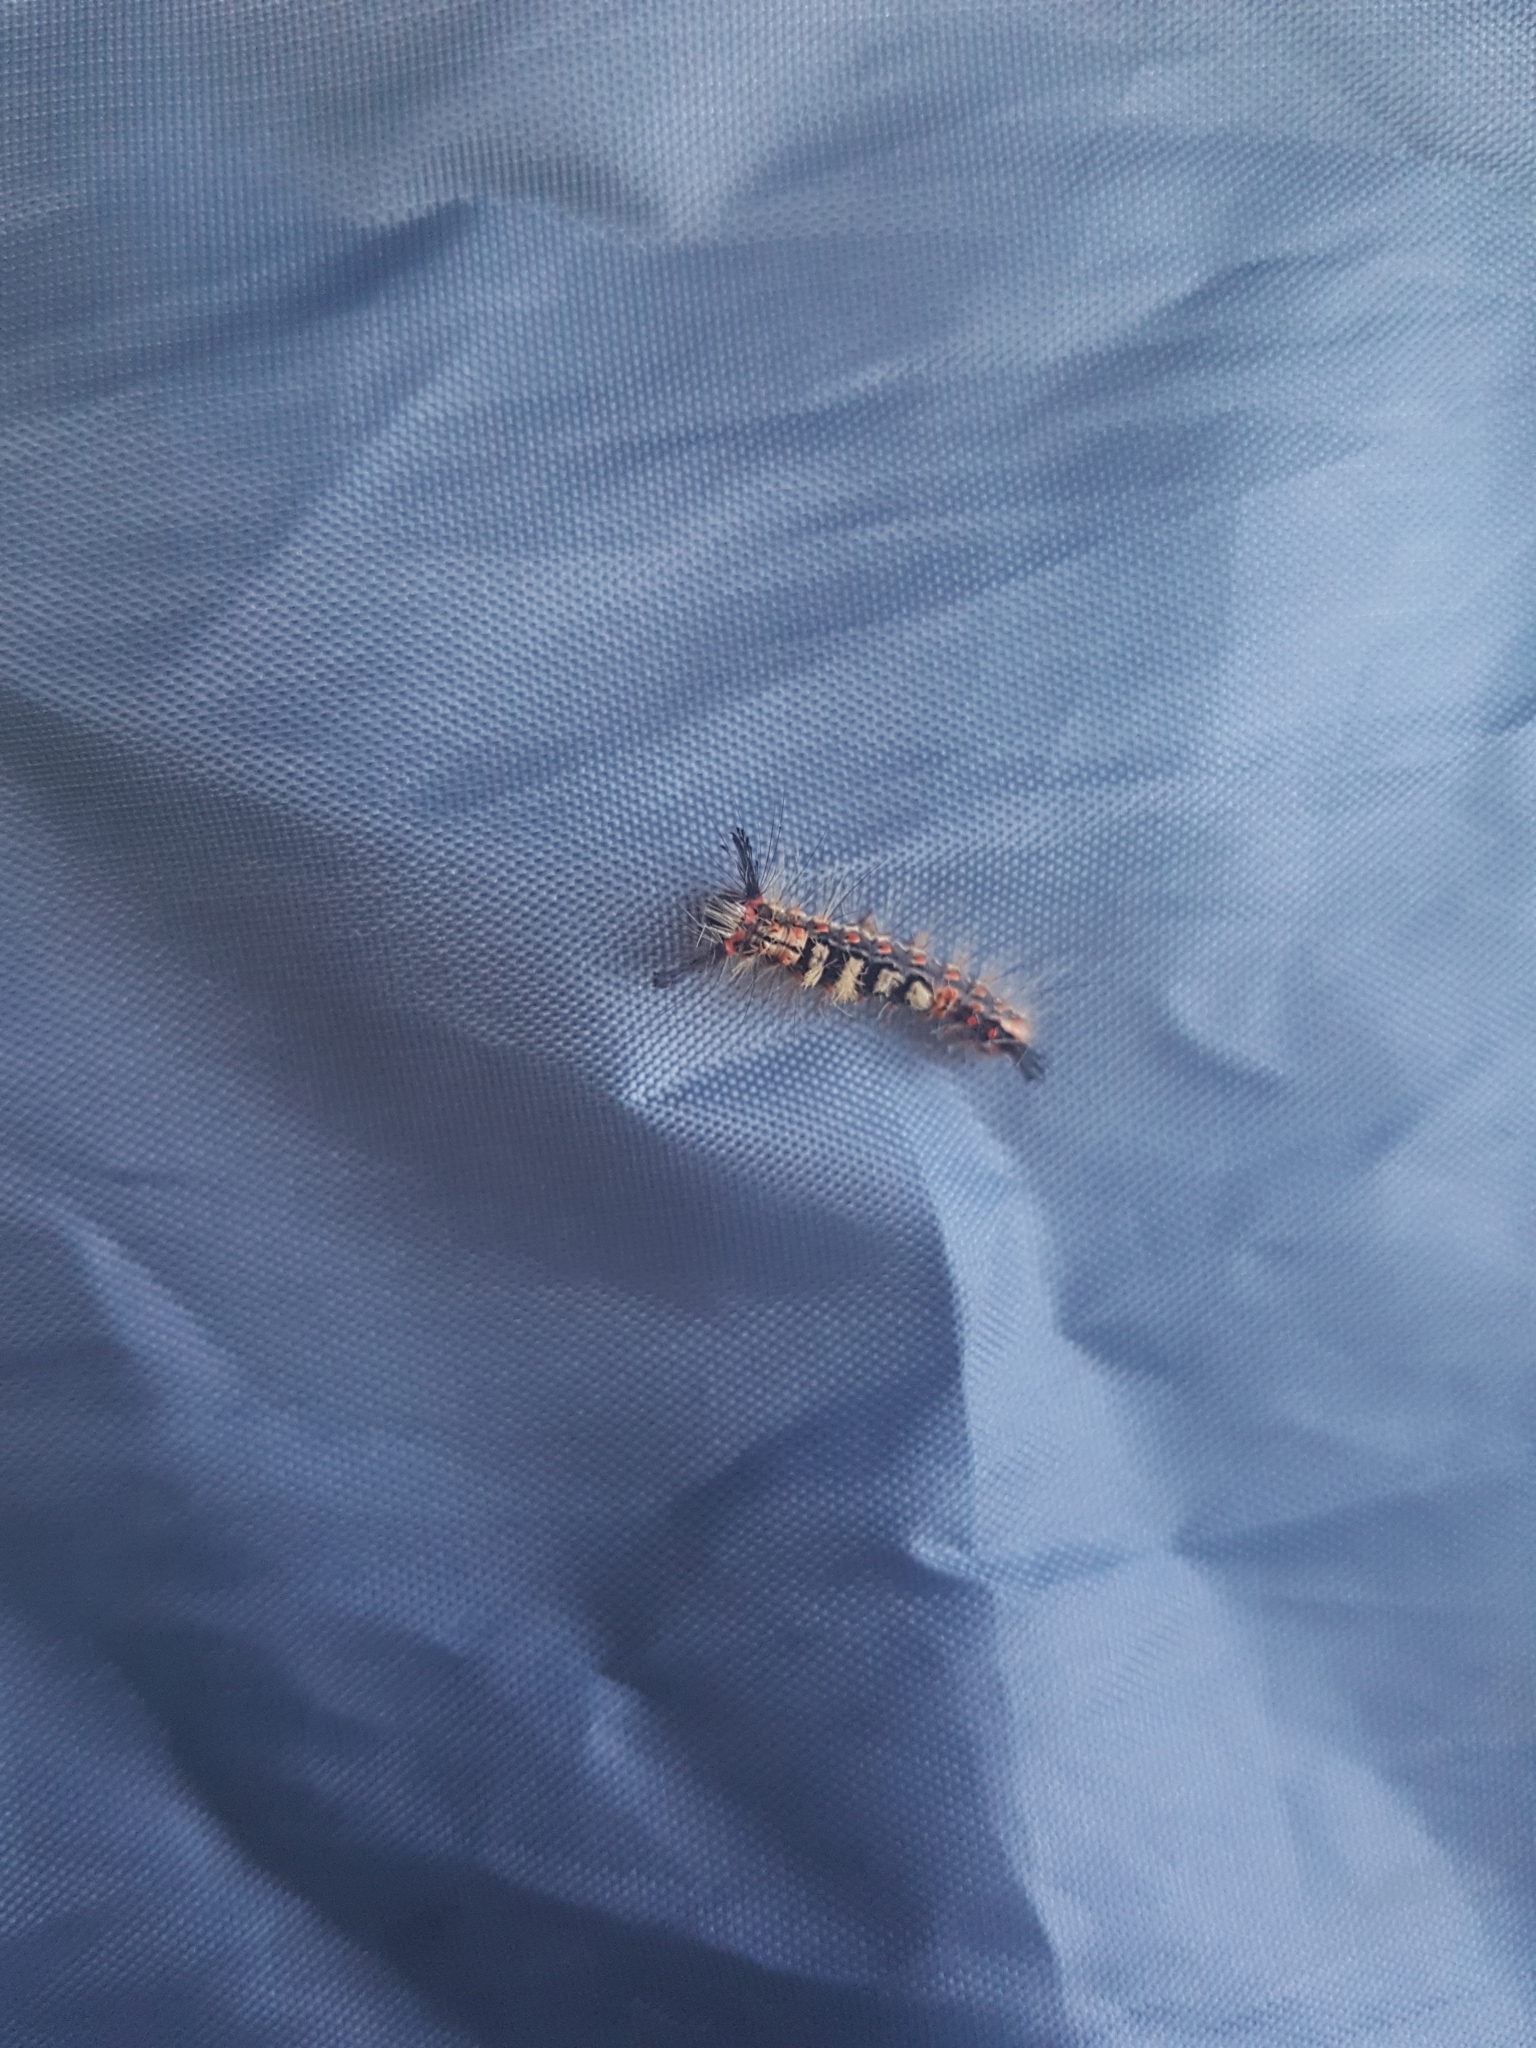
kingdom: Animalia
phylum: Arthropoda
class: Insecta
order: Lepidoptera
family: Erebidae
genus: Orgyia
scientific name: Orgyia antiqua
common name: Vapourer
